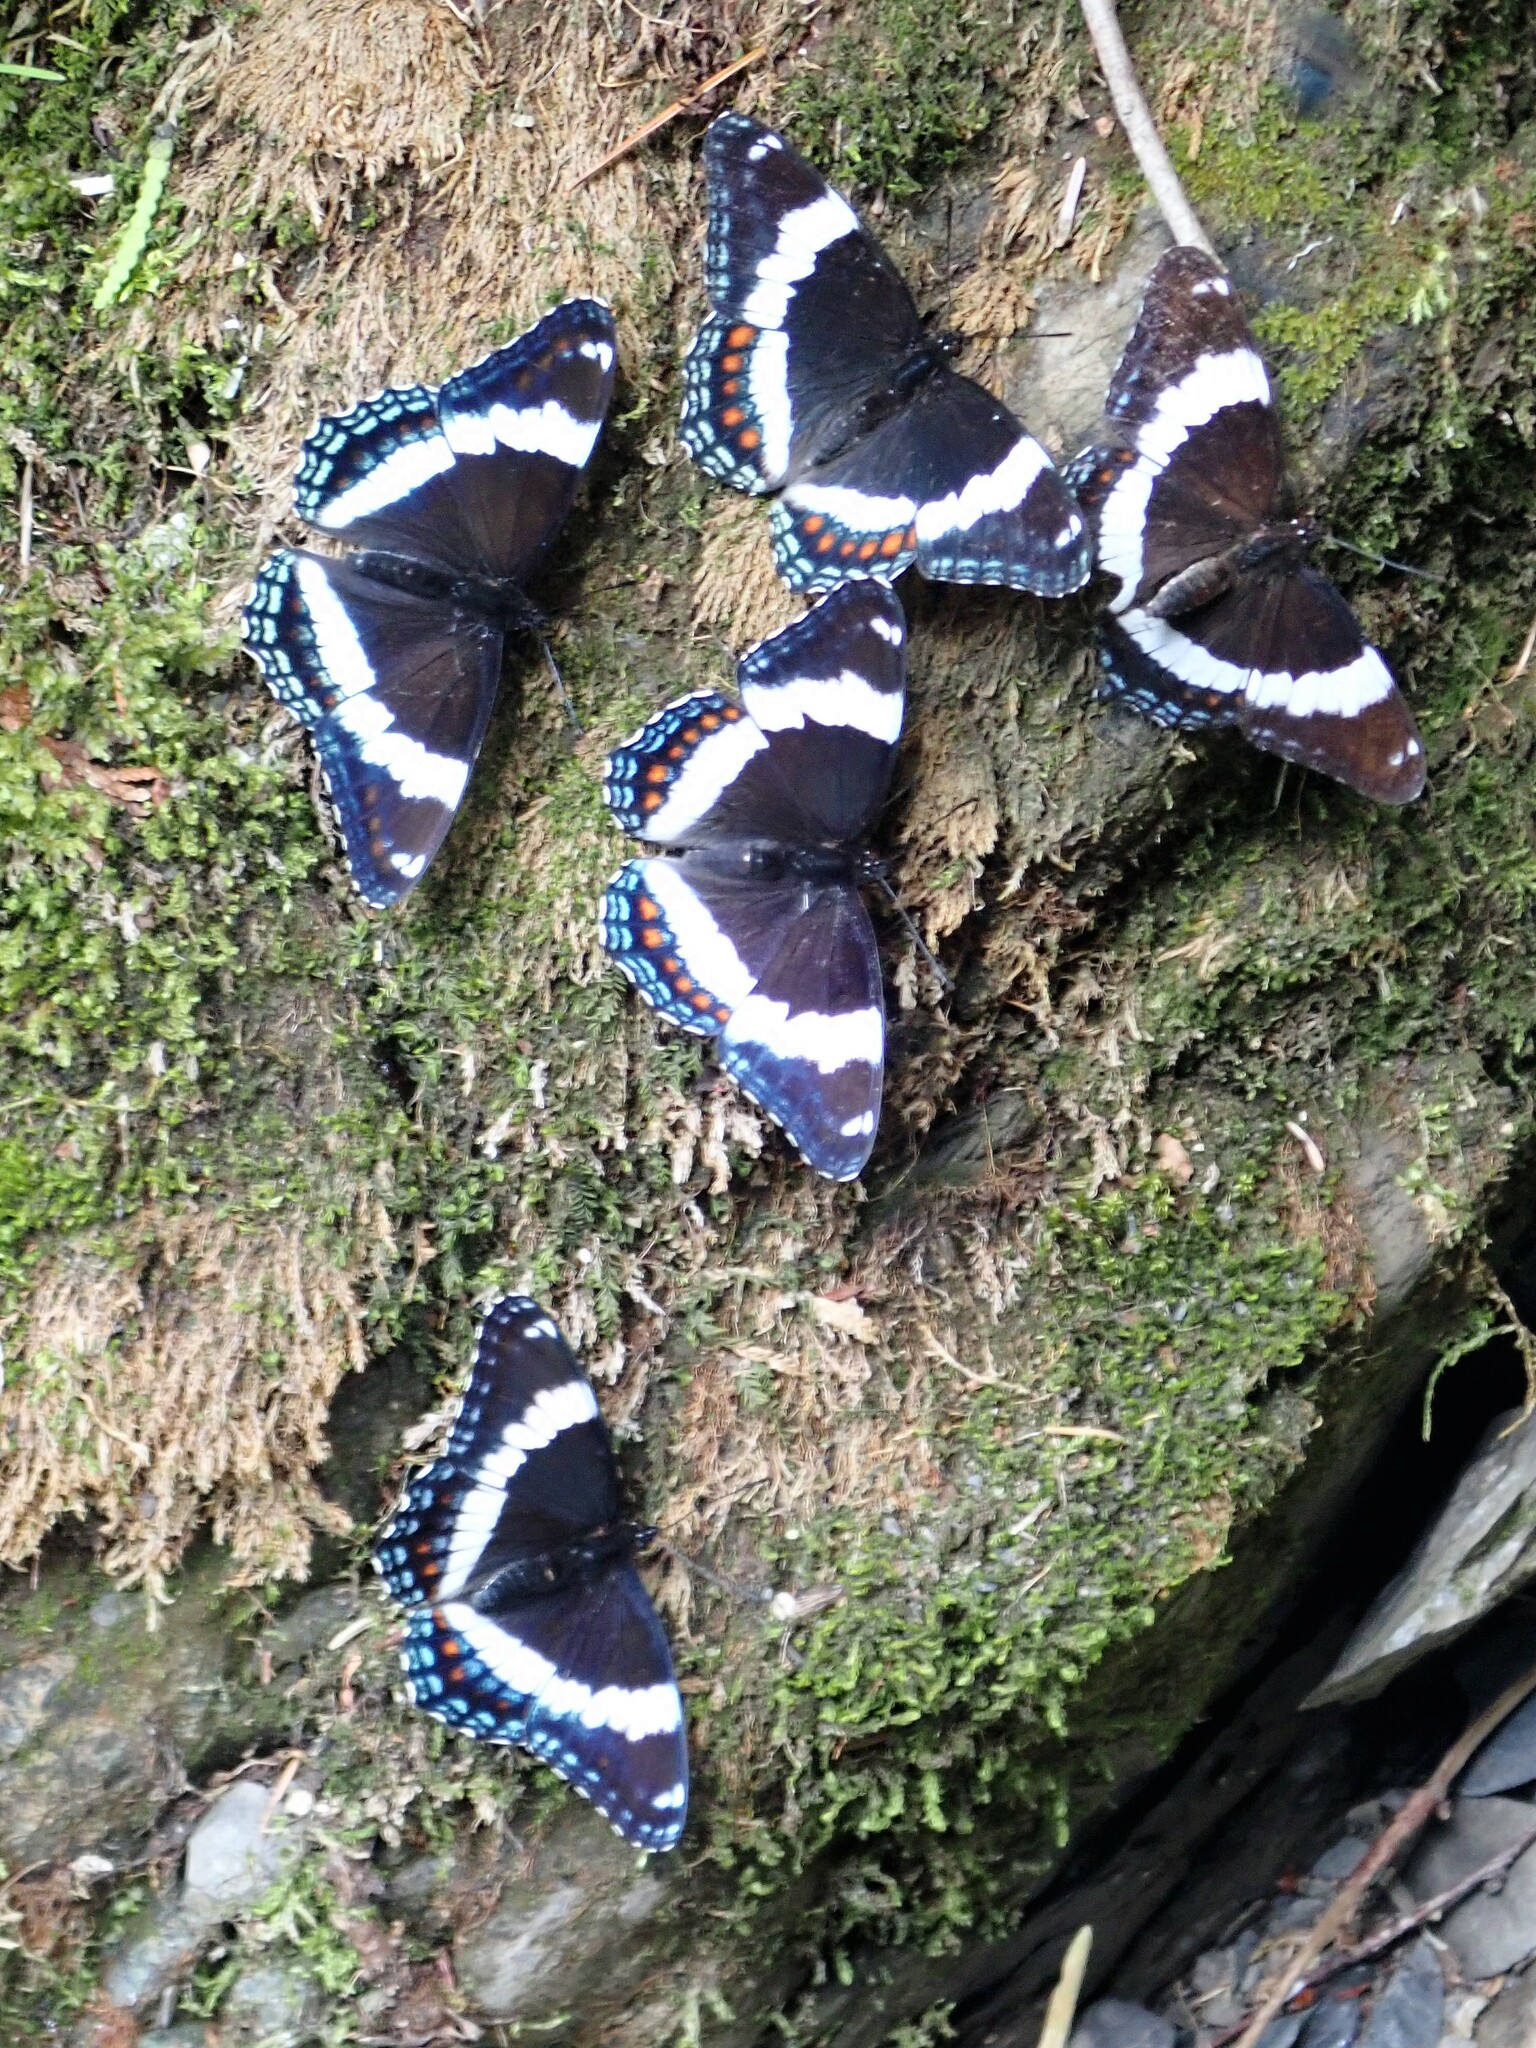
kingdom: Animalia
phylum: Arthropoda
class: Insecta
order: Lepidoptera
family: Nymphalidae
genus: Limenitis
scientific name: Limenitis arthemis
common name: Red-spotted admiral
